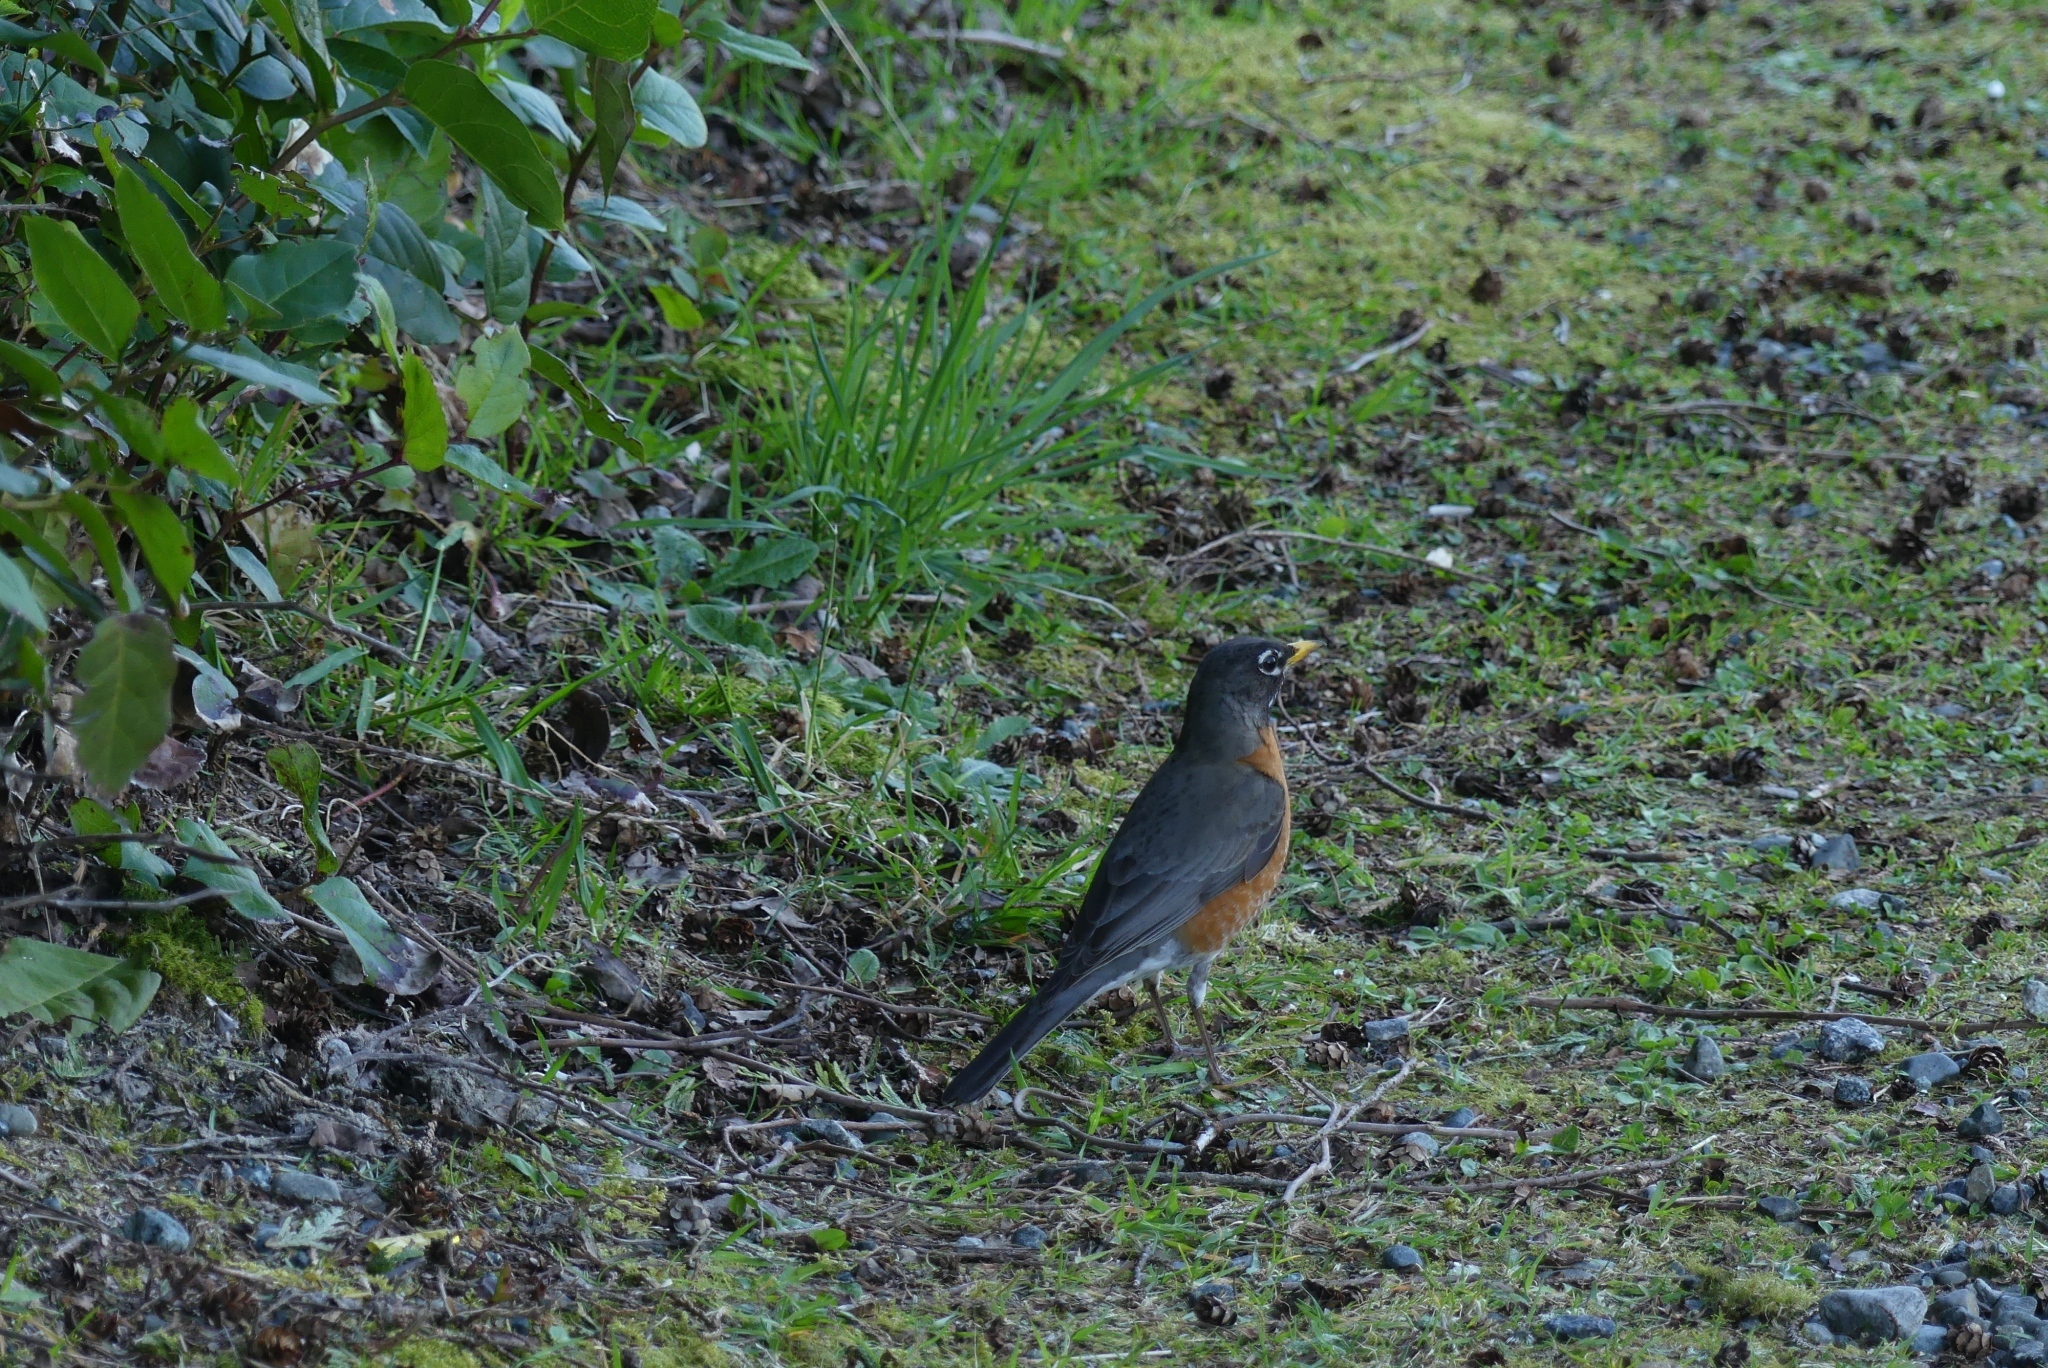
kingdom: Animalia
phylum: Chordata
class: Aves
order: Passeriformes
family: Turdidae
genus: Turdus
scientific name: Turdus migratorius
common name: American robin
